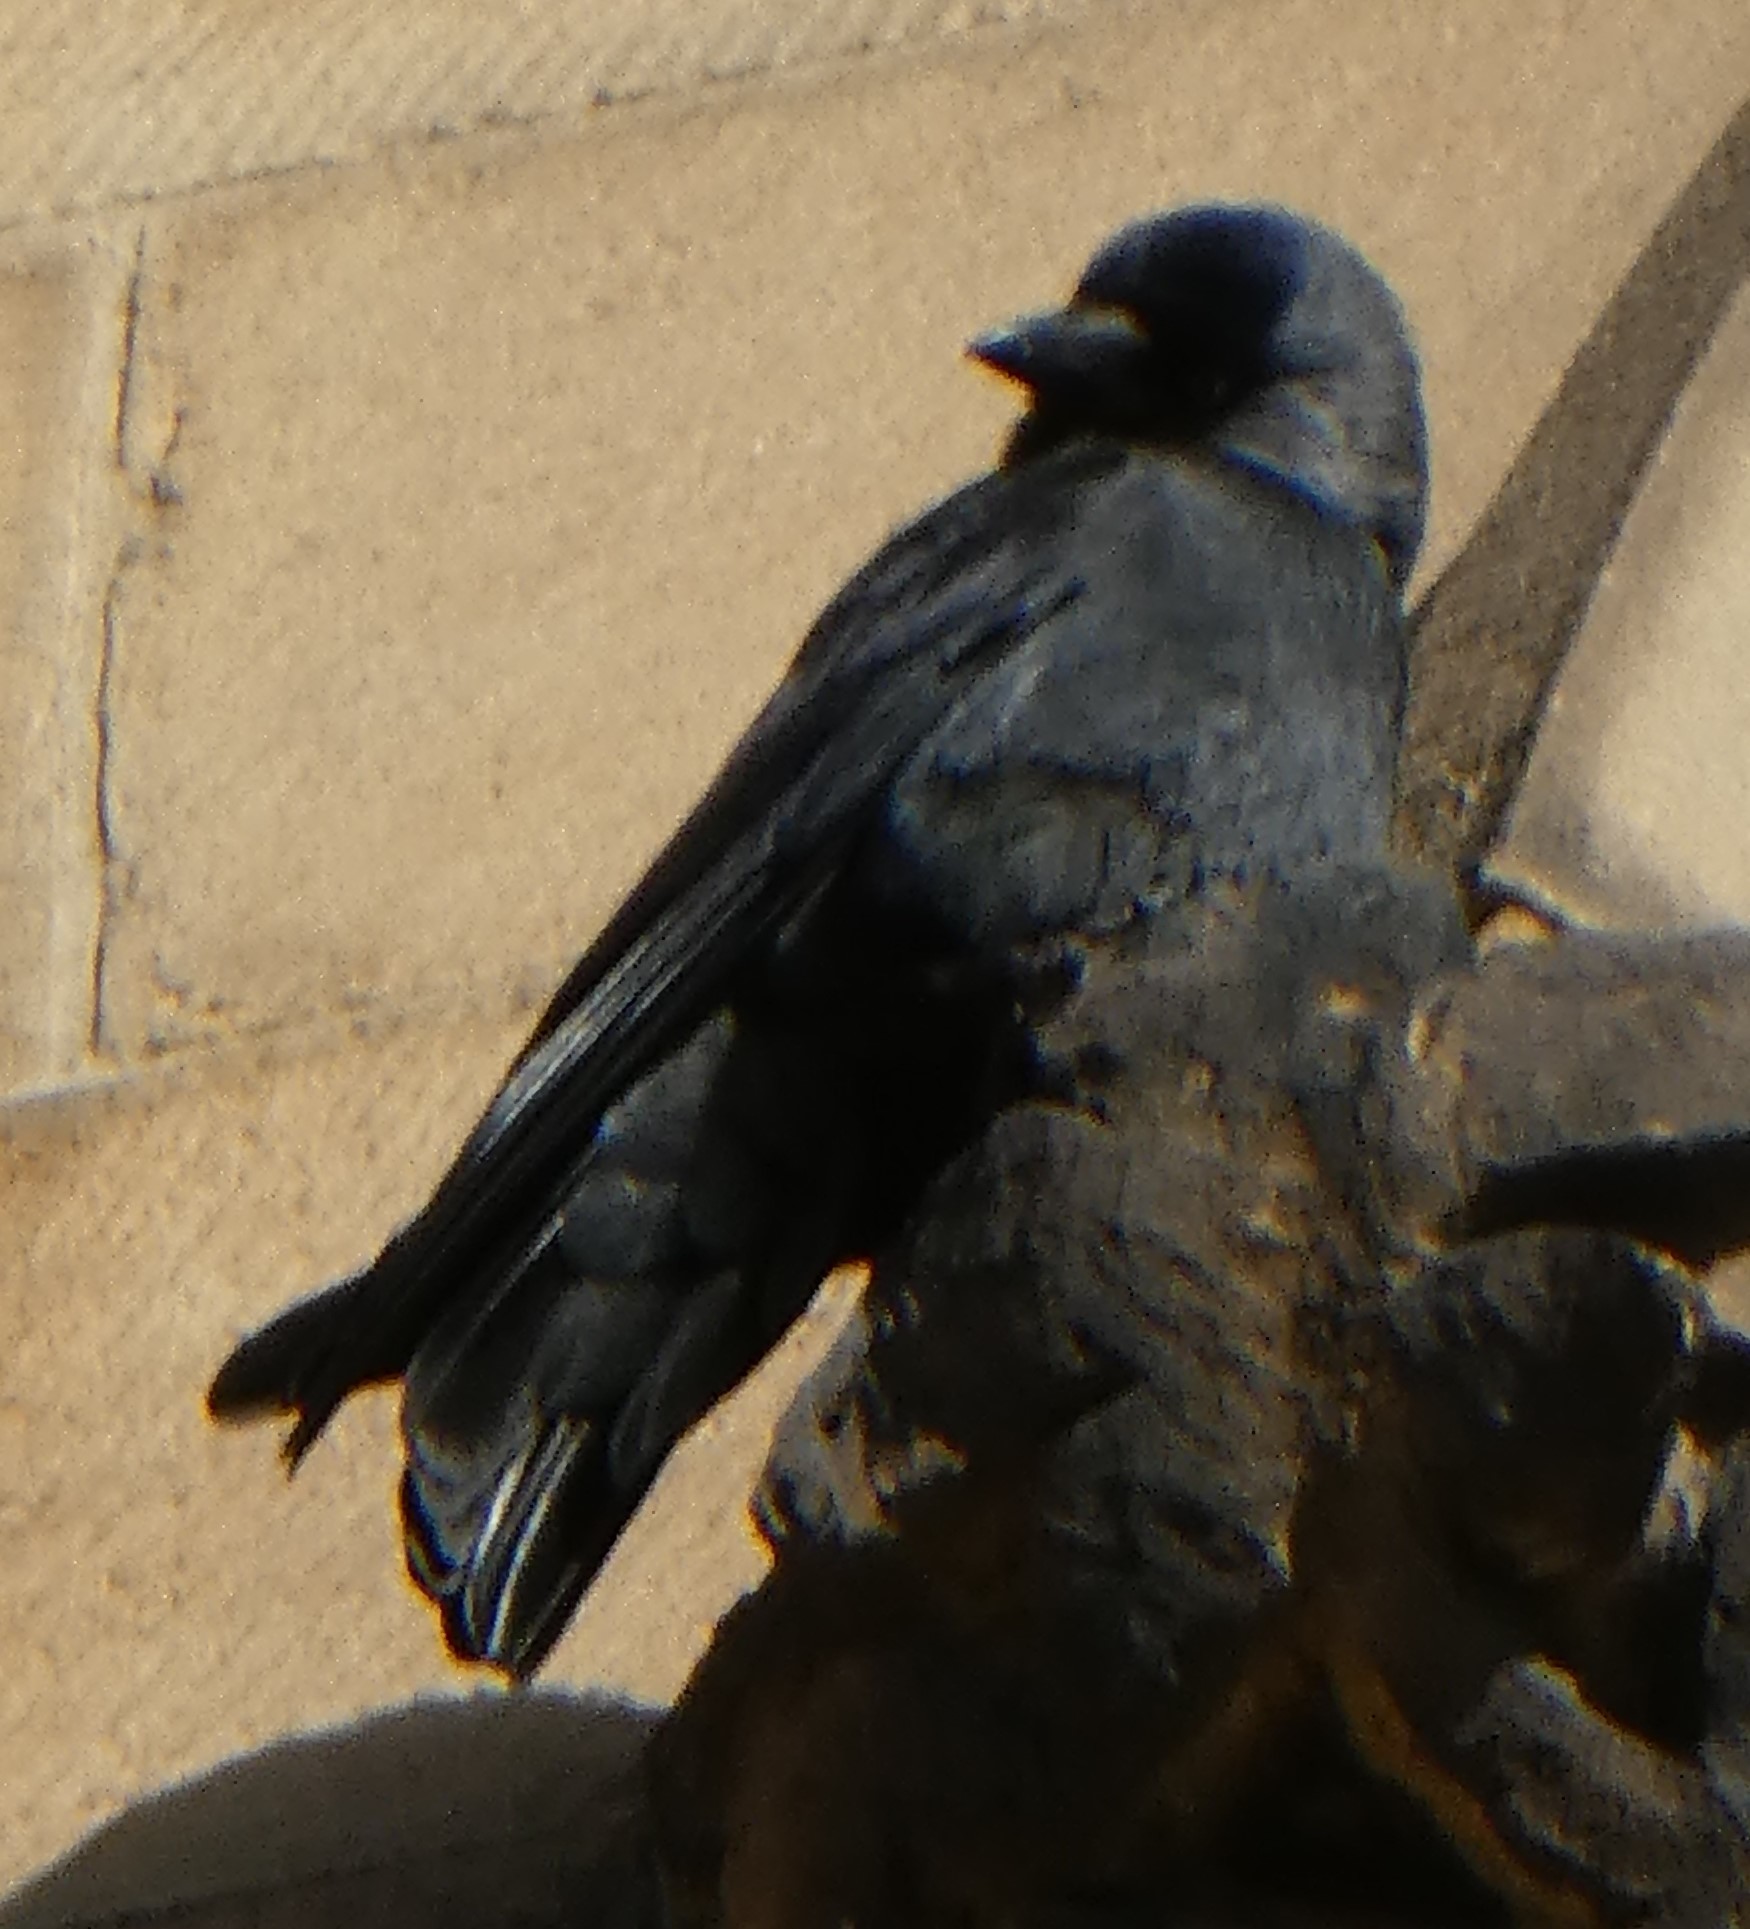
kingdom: Animalia
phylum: Chordata
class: Aves
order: Passeriformes
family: Corvidae
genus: Coloeus
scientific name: Coloeus monedula
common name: Western jackdaw
